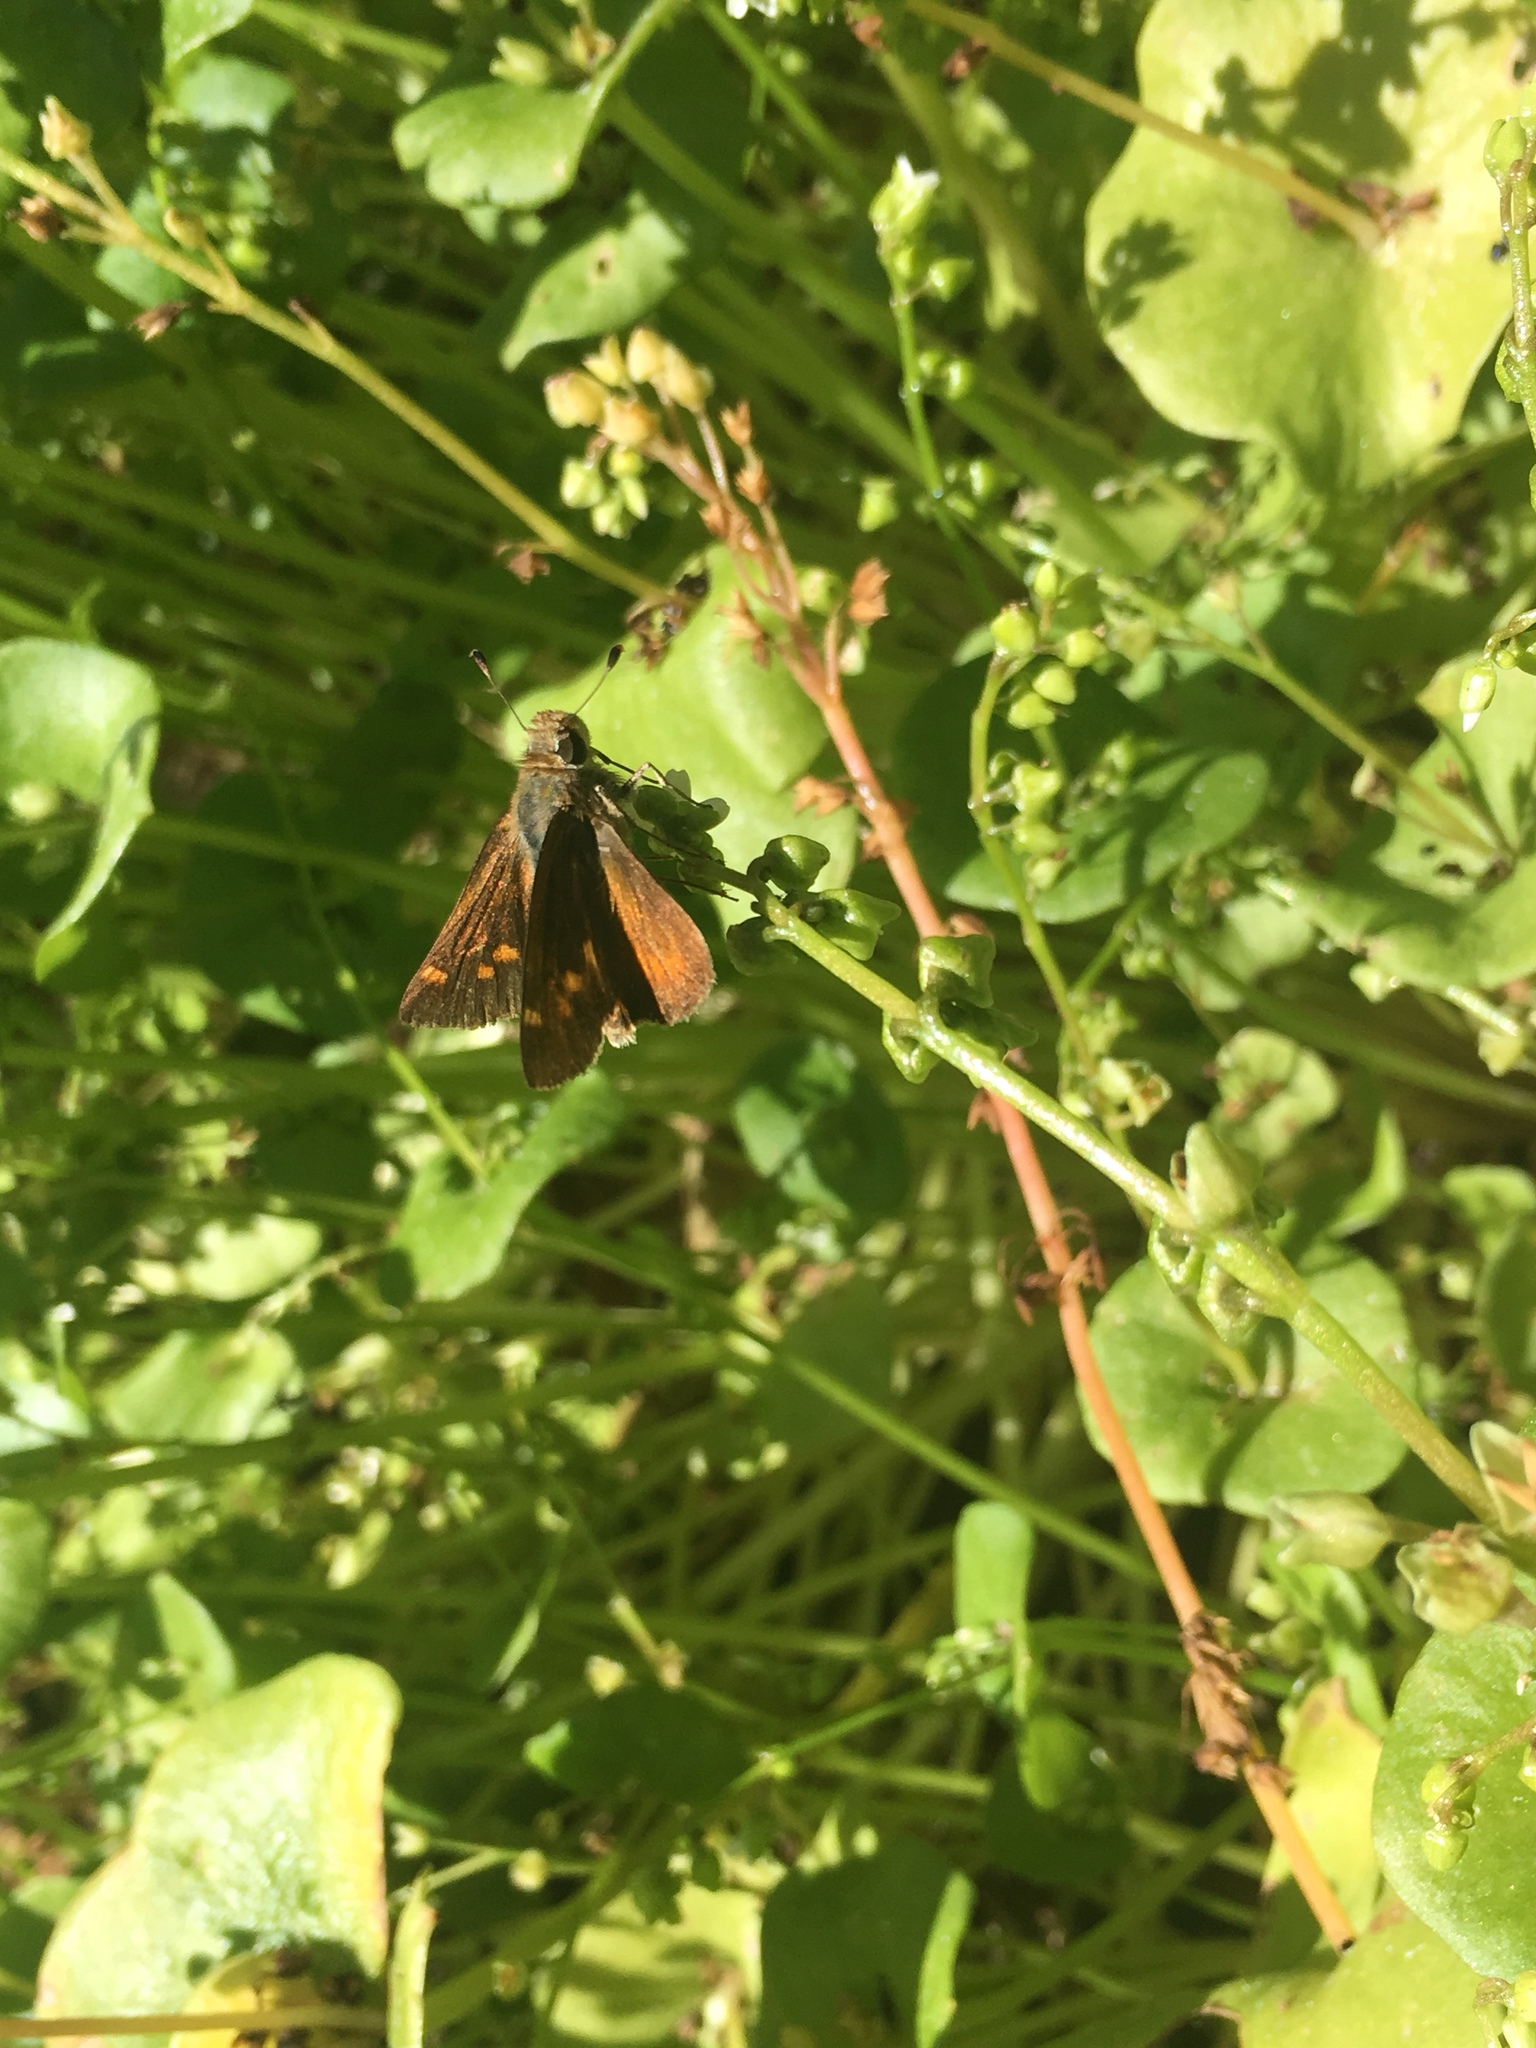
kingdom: Animalia
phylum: Arthropoda
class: Insecta
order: Lepidoptera
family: Hesperiidae
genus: Lon
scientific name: Lon melane
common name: Umber skipper
